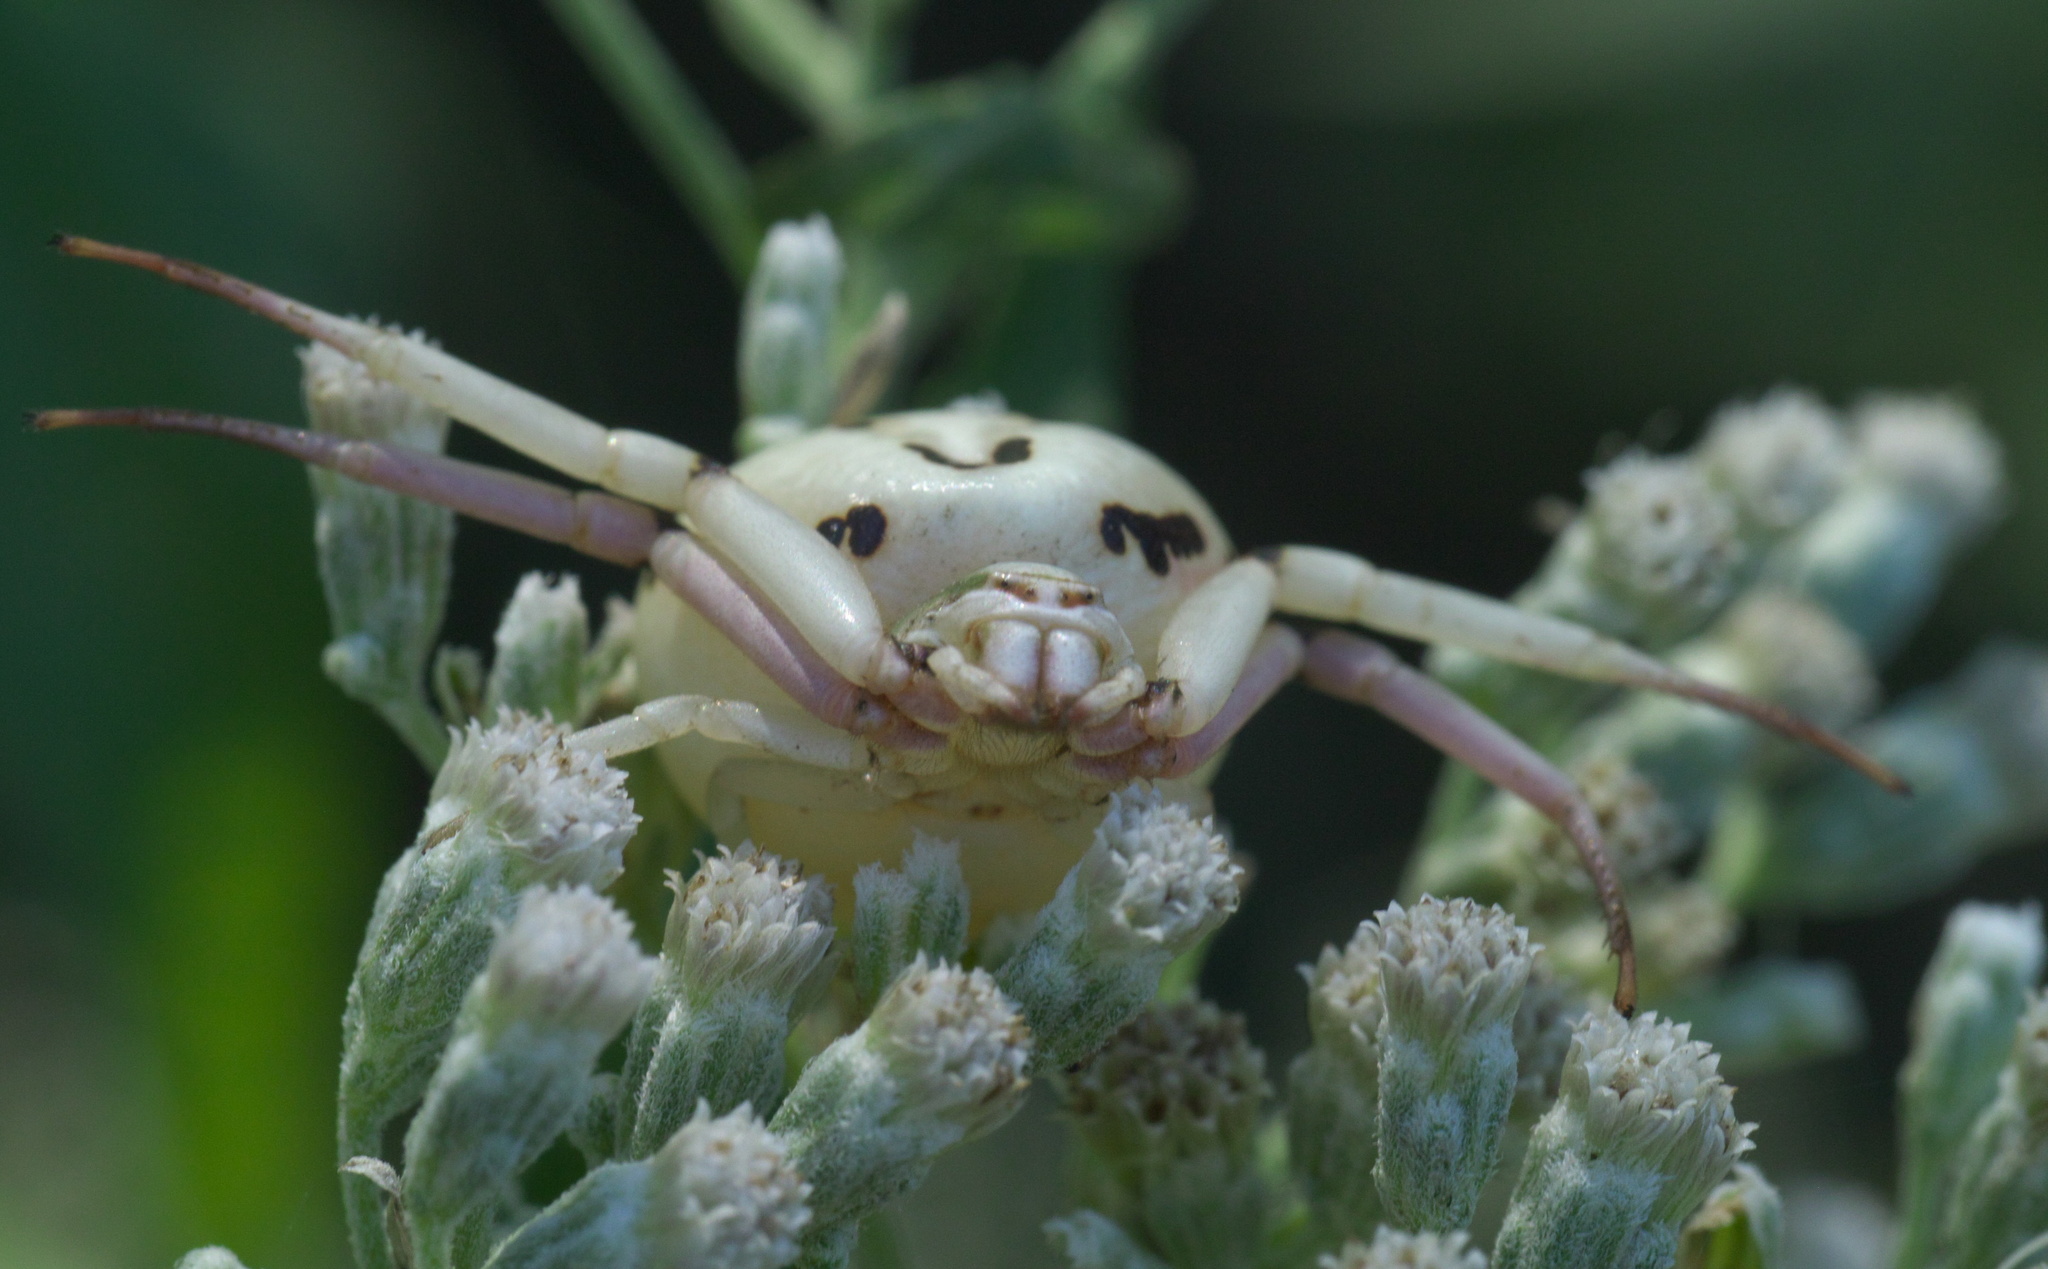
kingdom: Animalia
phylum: Arthropoda
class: Arachnida
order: Araneae
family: Thomisidae
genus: Misumenoides
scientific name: Misumenoides formosipes
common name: White-banded crab spider
